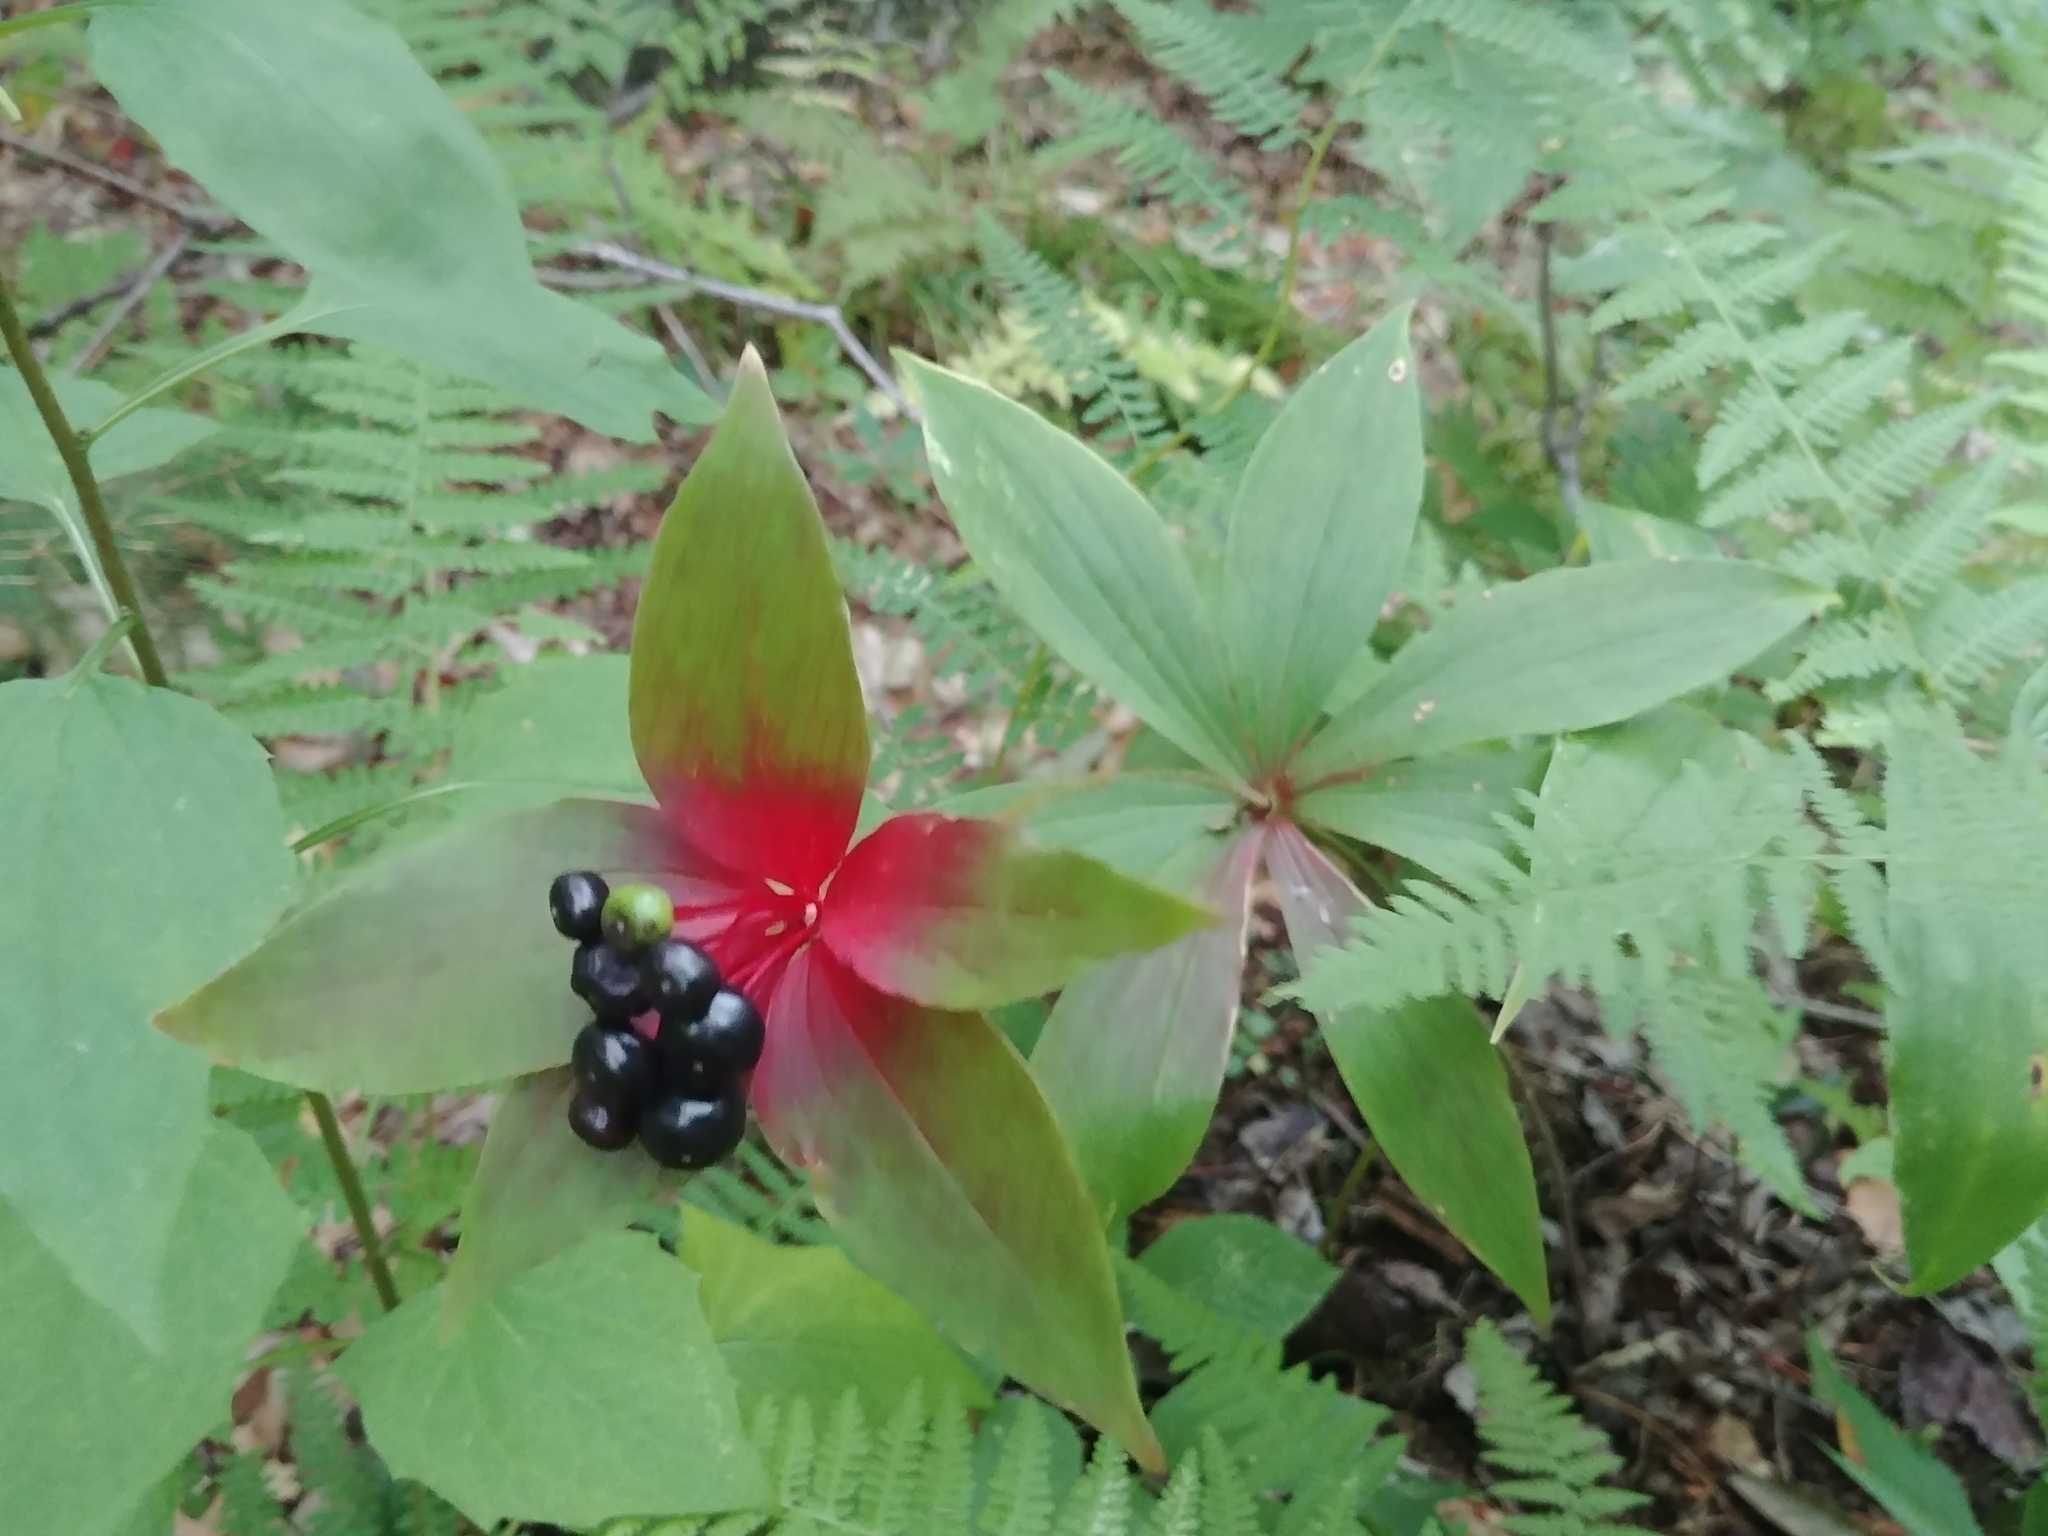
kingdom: Plantae
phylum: Tracheophyta
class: Liliopsida
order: Liliales
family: Liliaceae
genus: Medeola
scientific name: Medeola virginiana
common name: Indian cucumber-root
